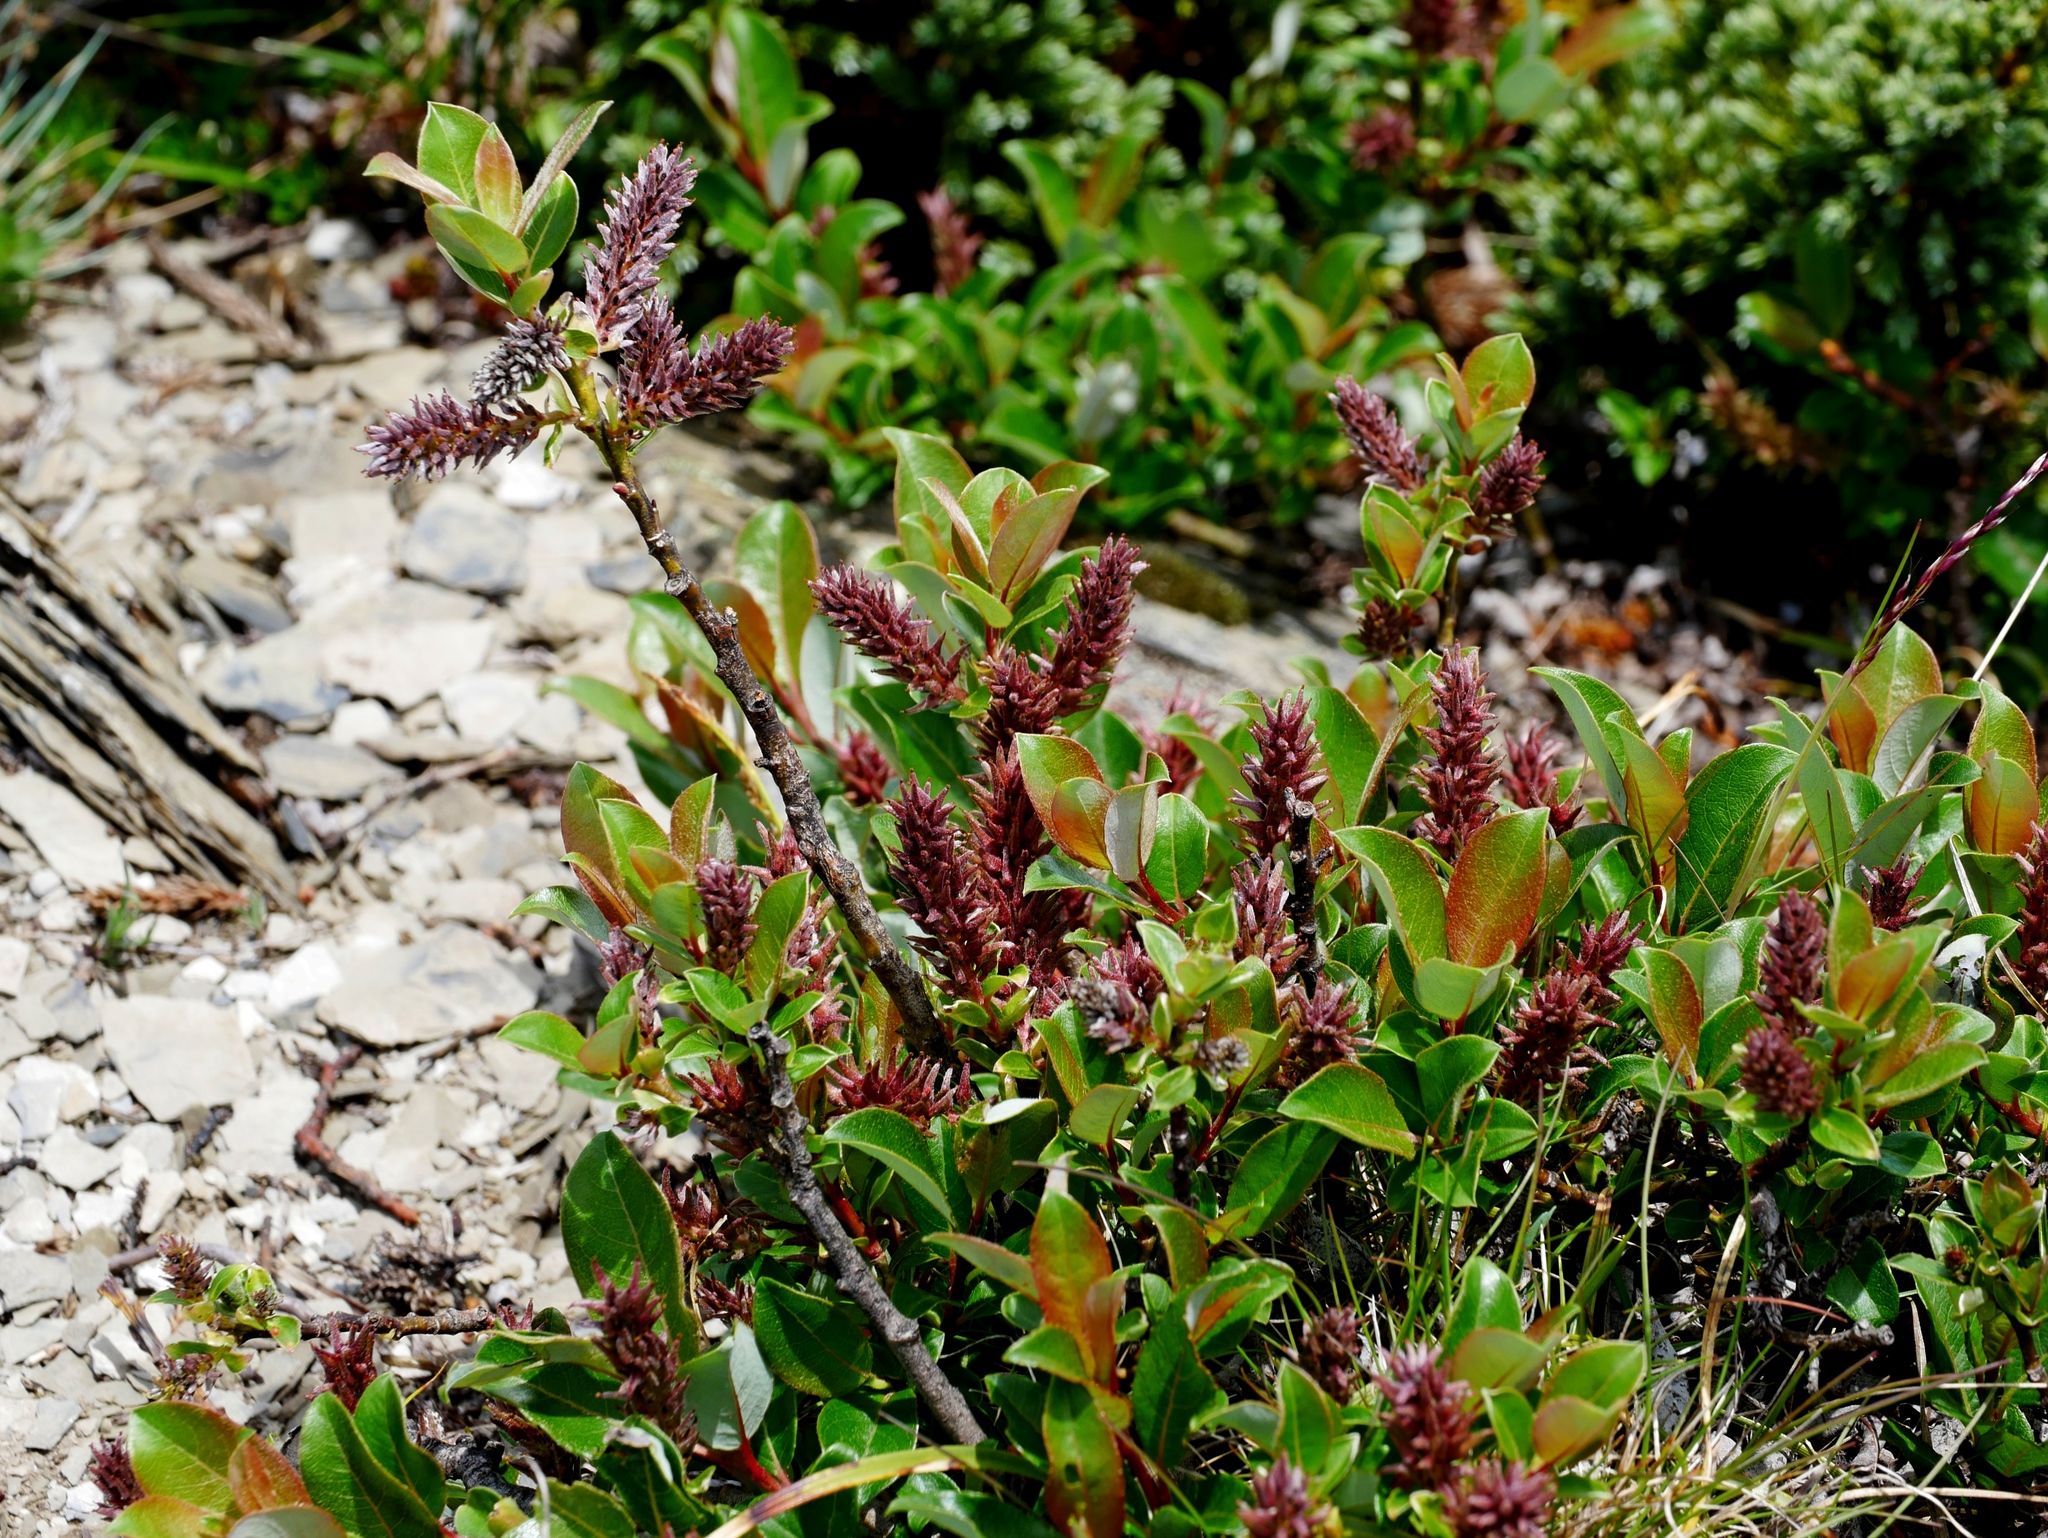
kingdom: Plantae
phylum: Tracheophyta
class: Magnoliopsida
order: Malpighiales
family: Salicaceae
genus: Salix
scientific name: Salix taiwanalpina
